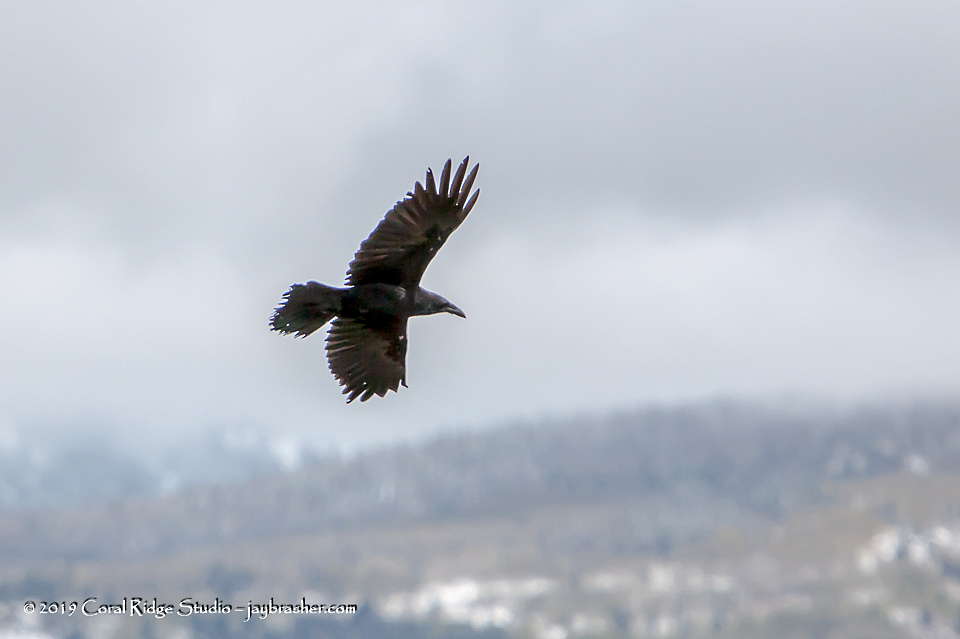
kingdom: Animalia
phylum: Chordata
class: Aves
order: Passeriformes
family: Corvidae
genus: Corvus
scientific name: Corvus corax
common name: Common raven
